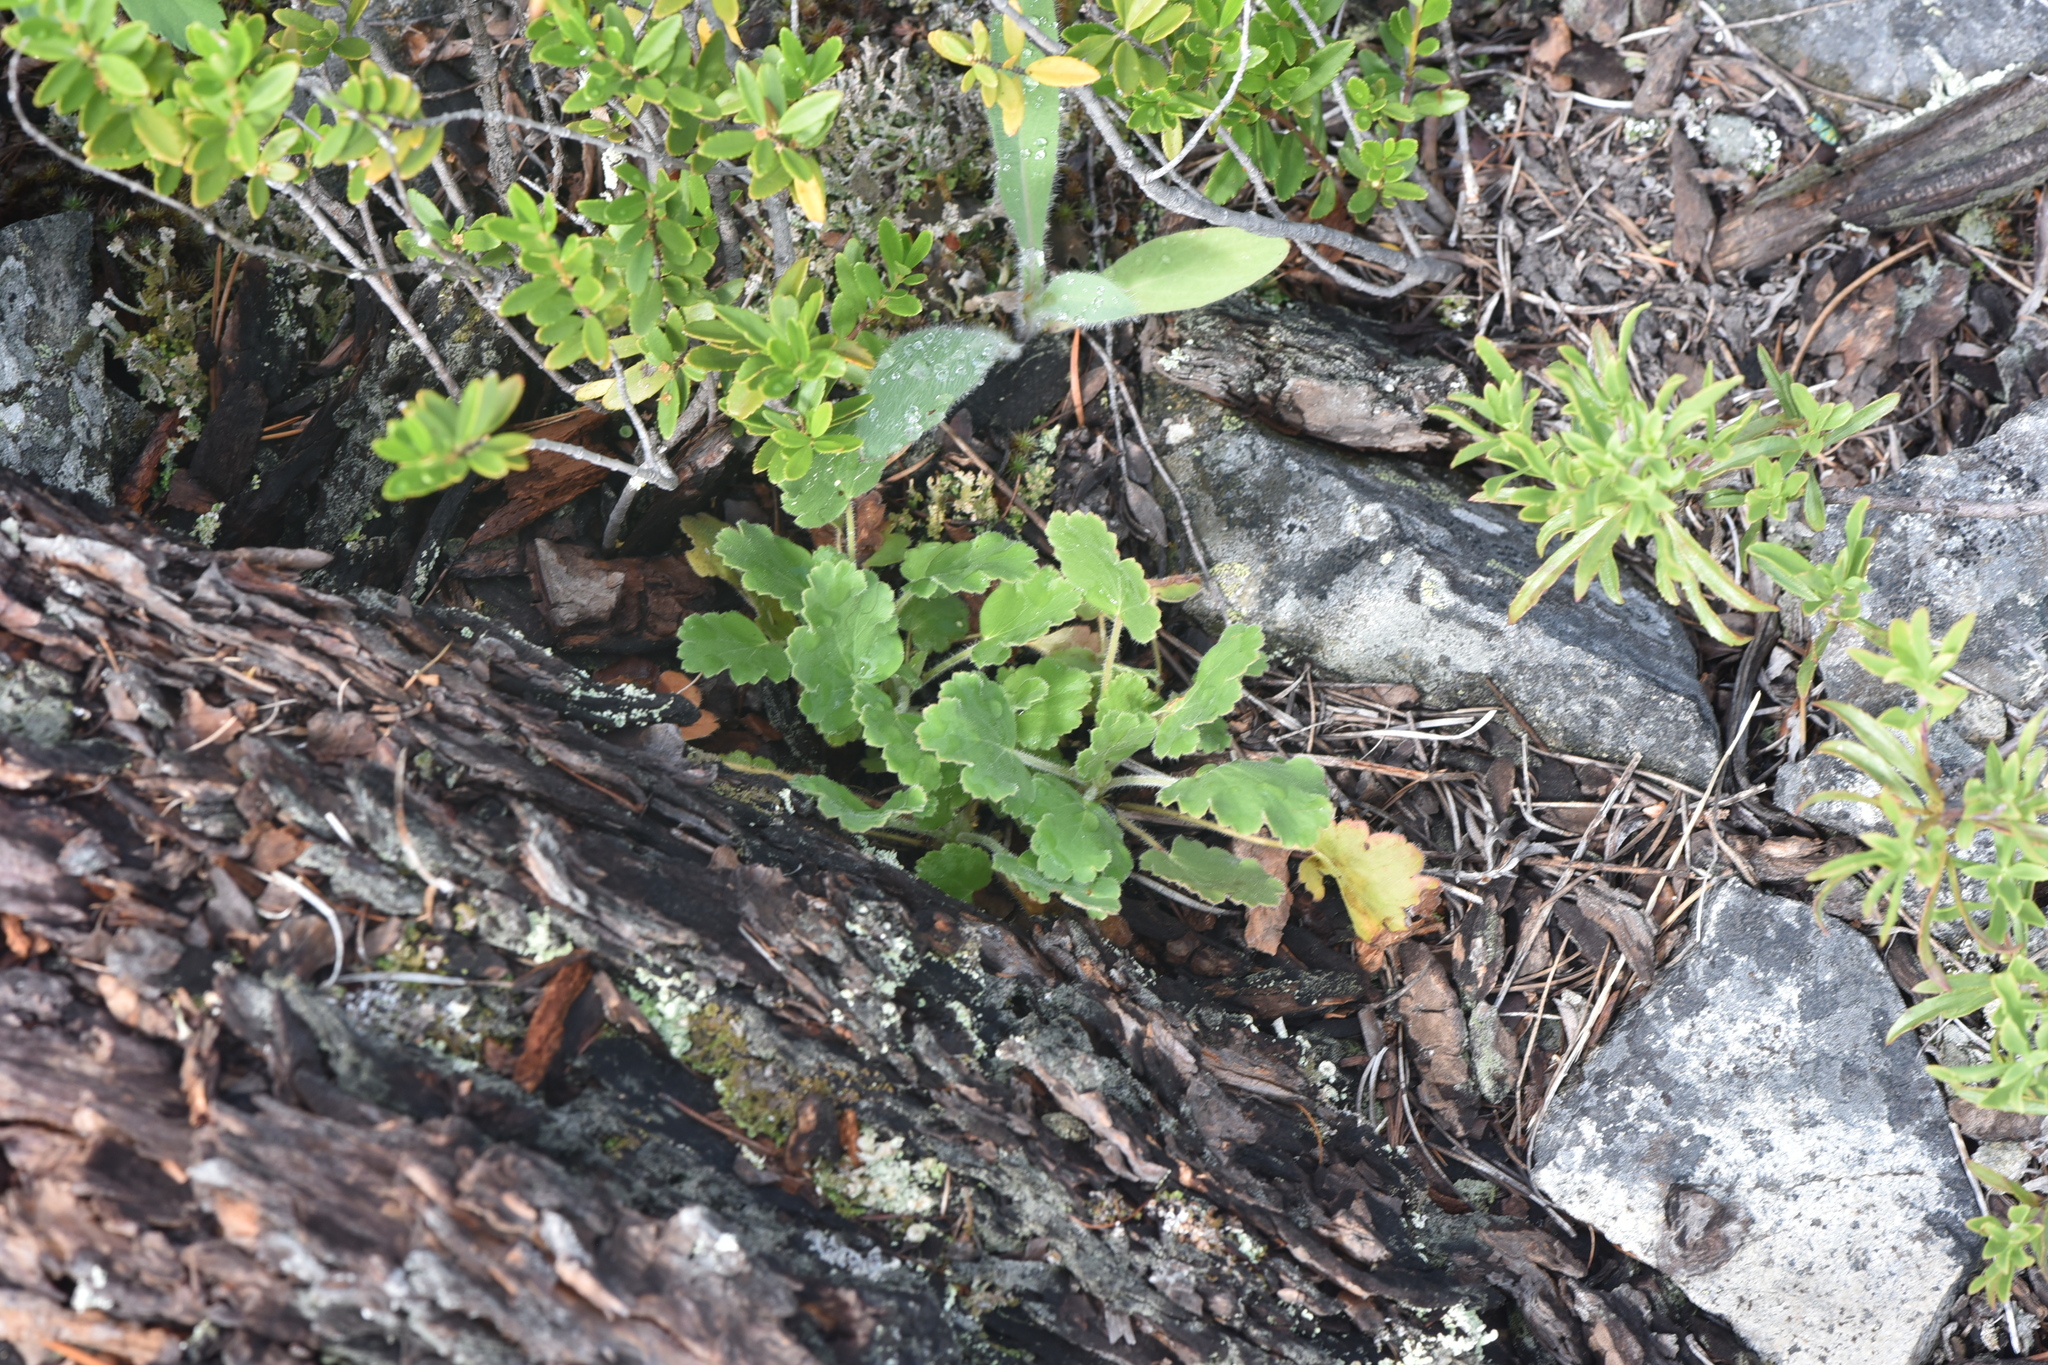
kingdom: Plantae
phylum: Tracheophyta
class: Magnoliopsida
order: Saxifragales
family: Saxifragaceae
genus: Heuchera
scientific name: Heuchera cylindrica
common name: Mat alumroot
